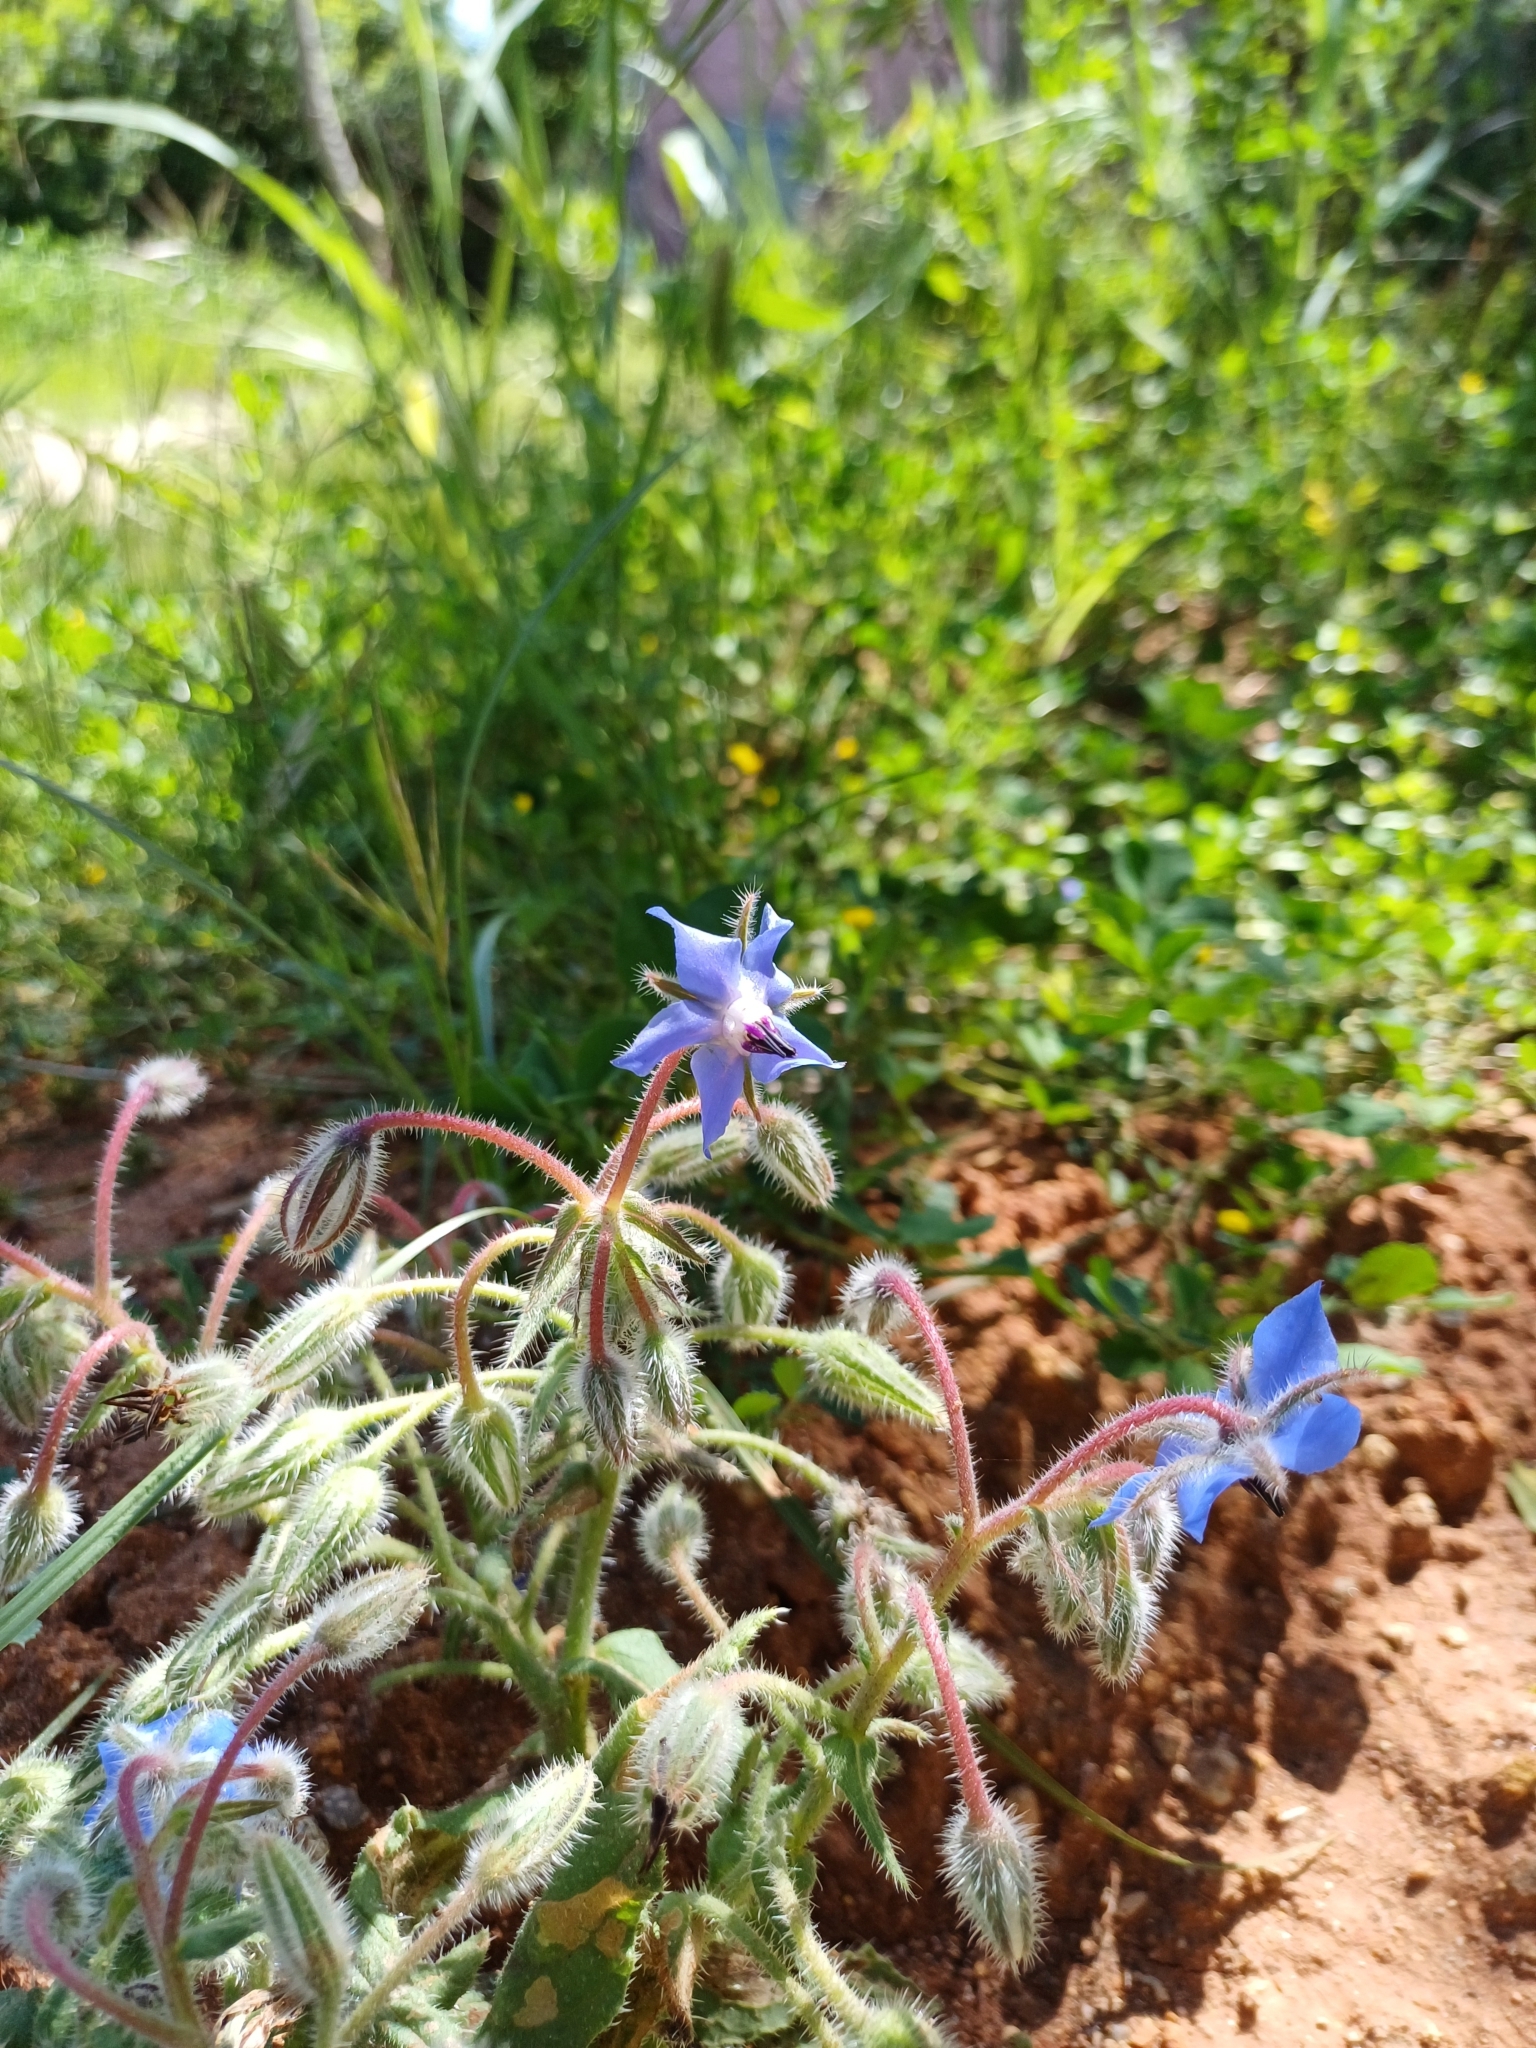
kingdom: Plantae
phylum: Tracheophyta
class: Magnoliopsida
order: Boraginales
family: Boraginaceae
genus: Borago
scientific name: Borago officinalis
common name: Borage
